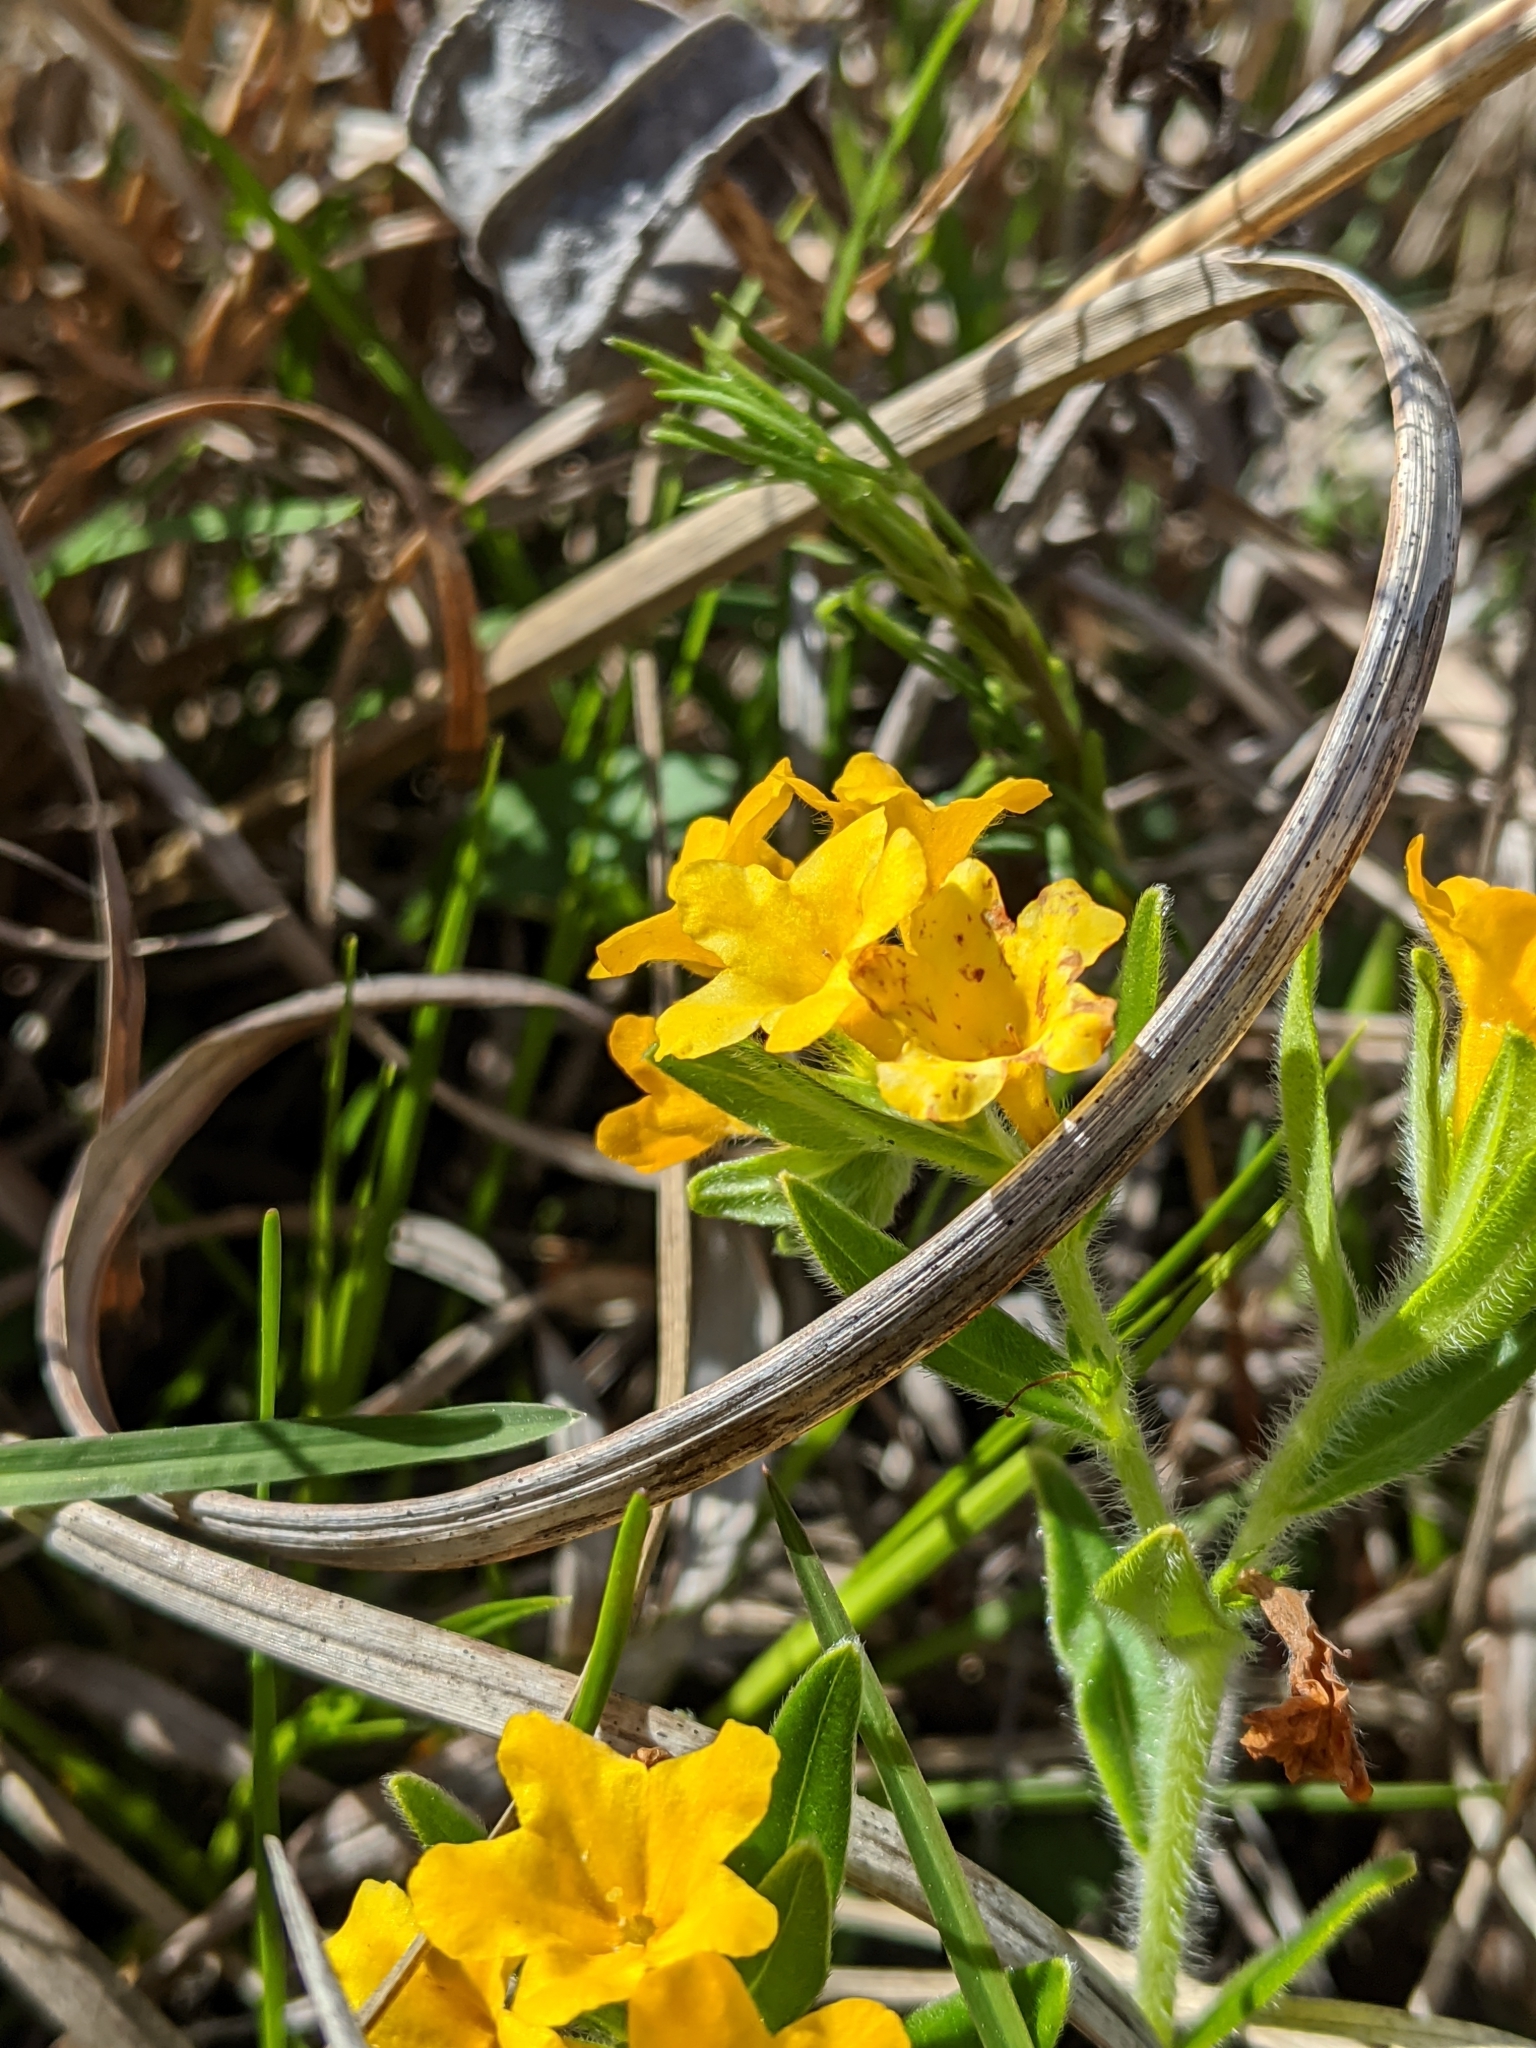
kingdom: Plantae
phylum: Tracheophyta
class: Magnoliopsida
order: Boraginales
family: Boraginaceae
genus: Lithospermum
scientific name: Lithospermum canescens
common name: Hoary puccoon
